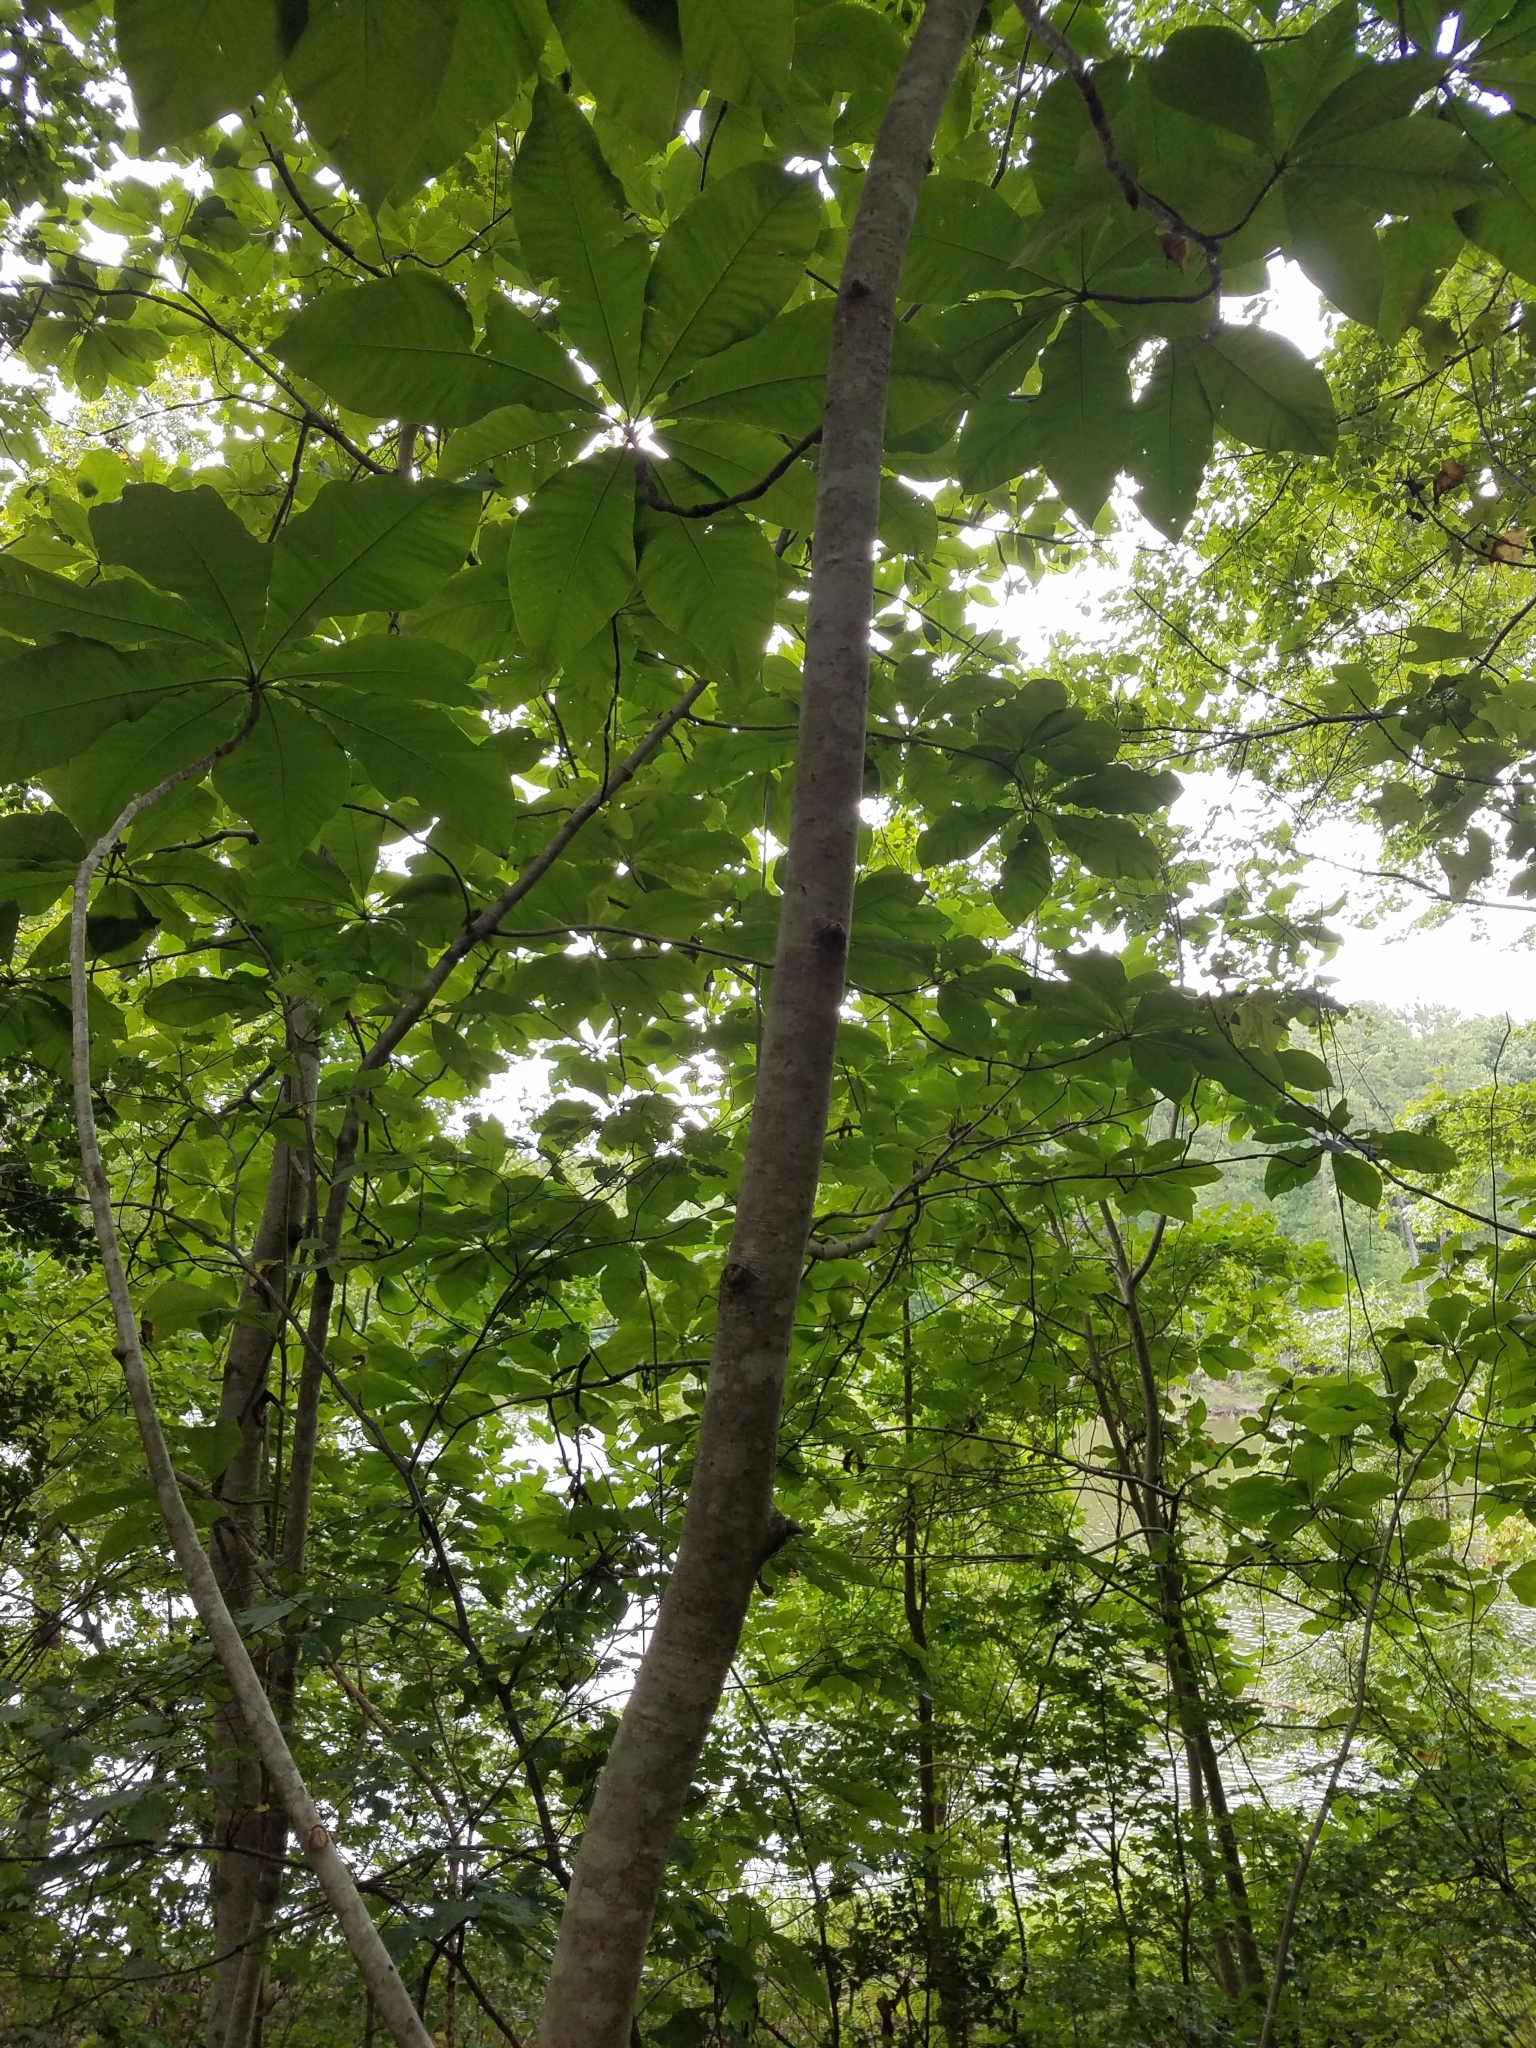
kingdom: Plantae
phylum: Tracheophyta
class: Magnoliopsida
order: Magnoliales
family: Magnoliaceae
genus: Magnolia
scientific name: Magnolia tripetala
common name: Umbrella magnolia
